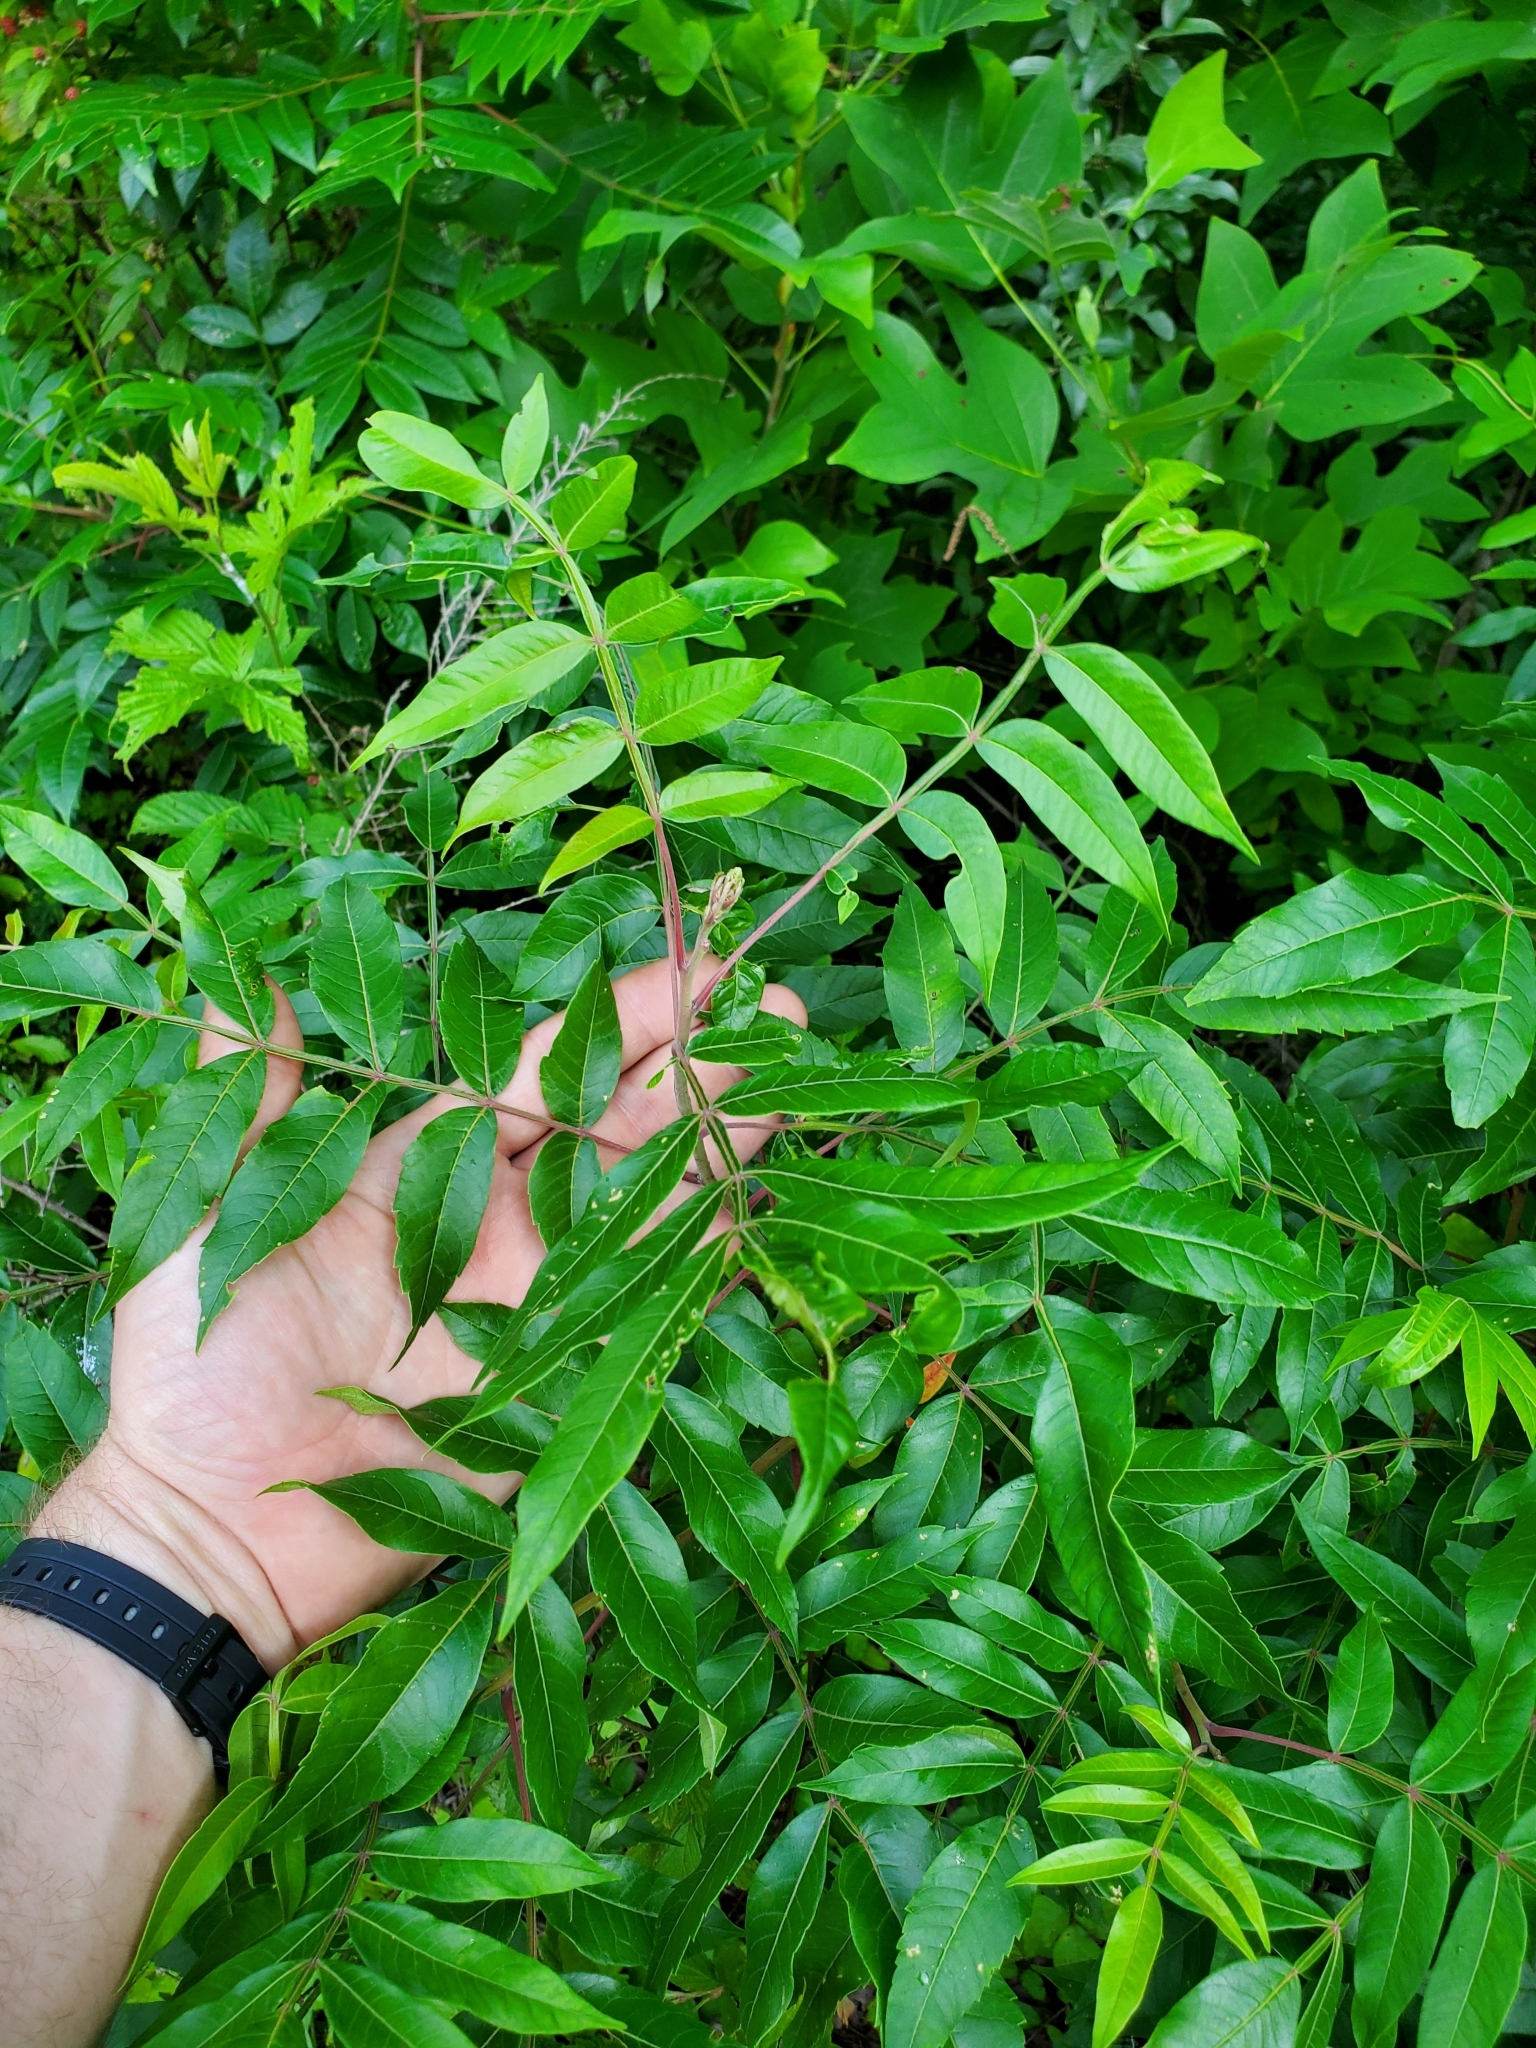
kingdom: Plantae
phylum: Tracheophyta
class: Magnoliopsida
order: Sapindales
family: Anacardiaceae
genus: Rhus
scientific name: Rhus copallina
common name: Shining sumac
